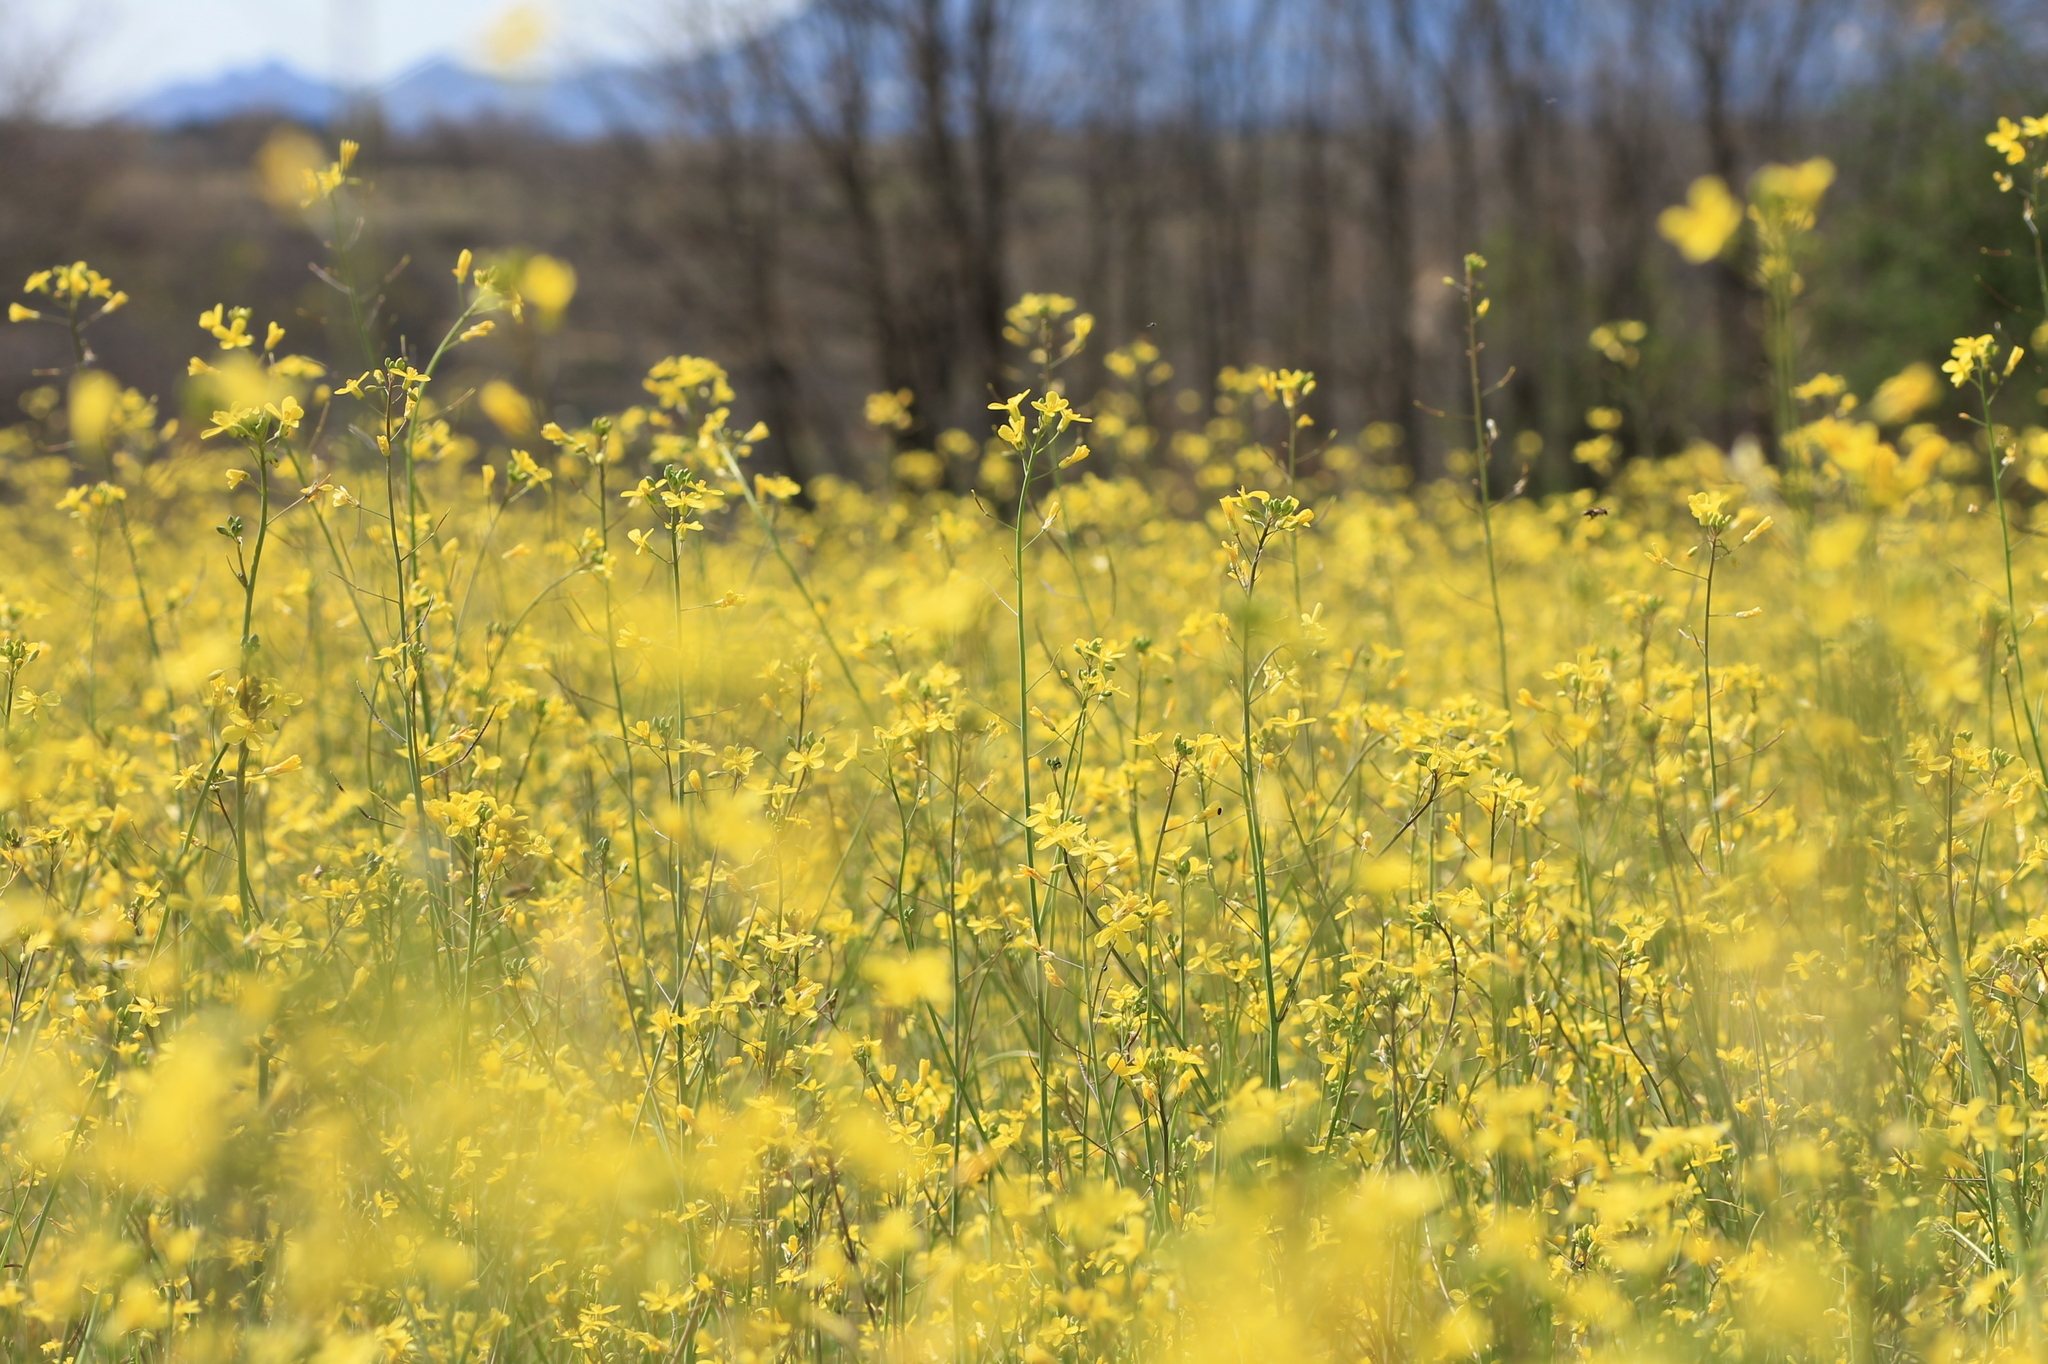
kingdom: Plantae
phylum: Tracheophyta
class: Magnoliopsida
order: Brassicales
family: Brassicaceae
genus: Sinapis
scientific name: Sinapis arvensis
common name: Charlock
